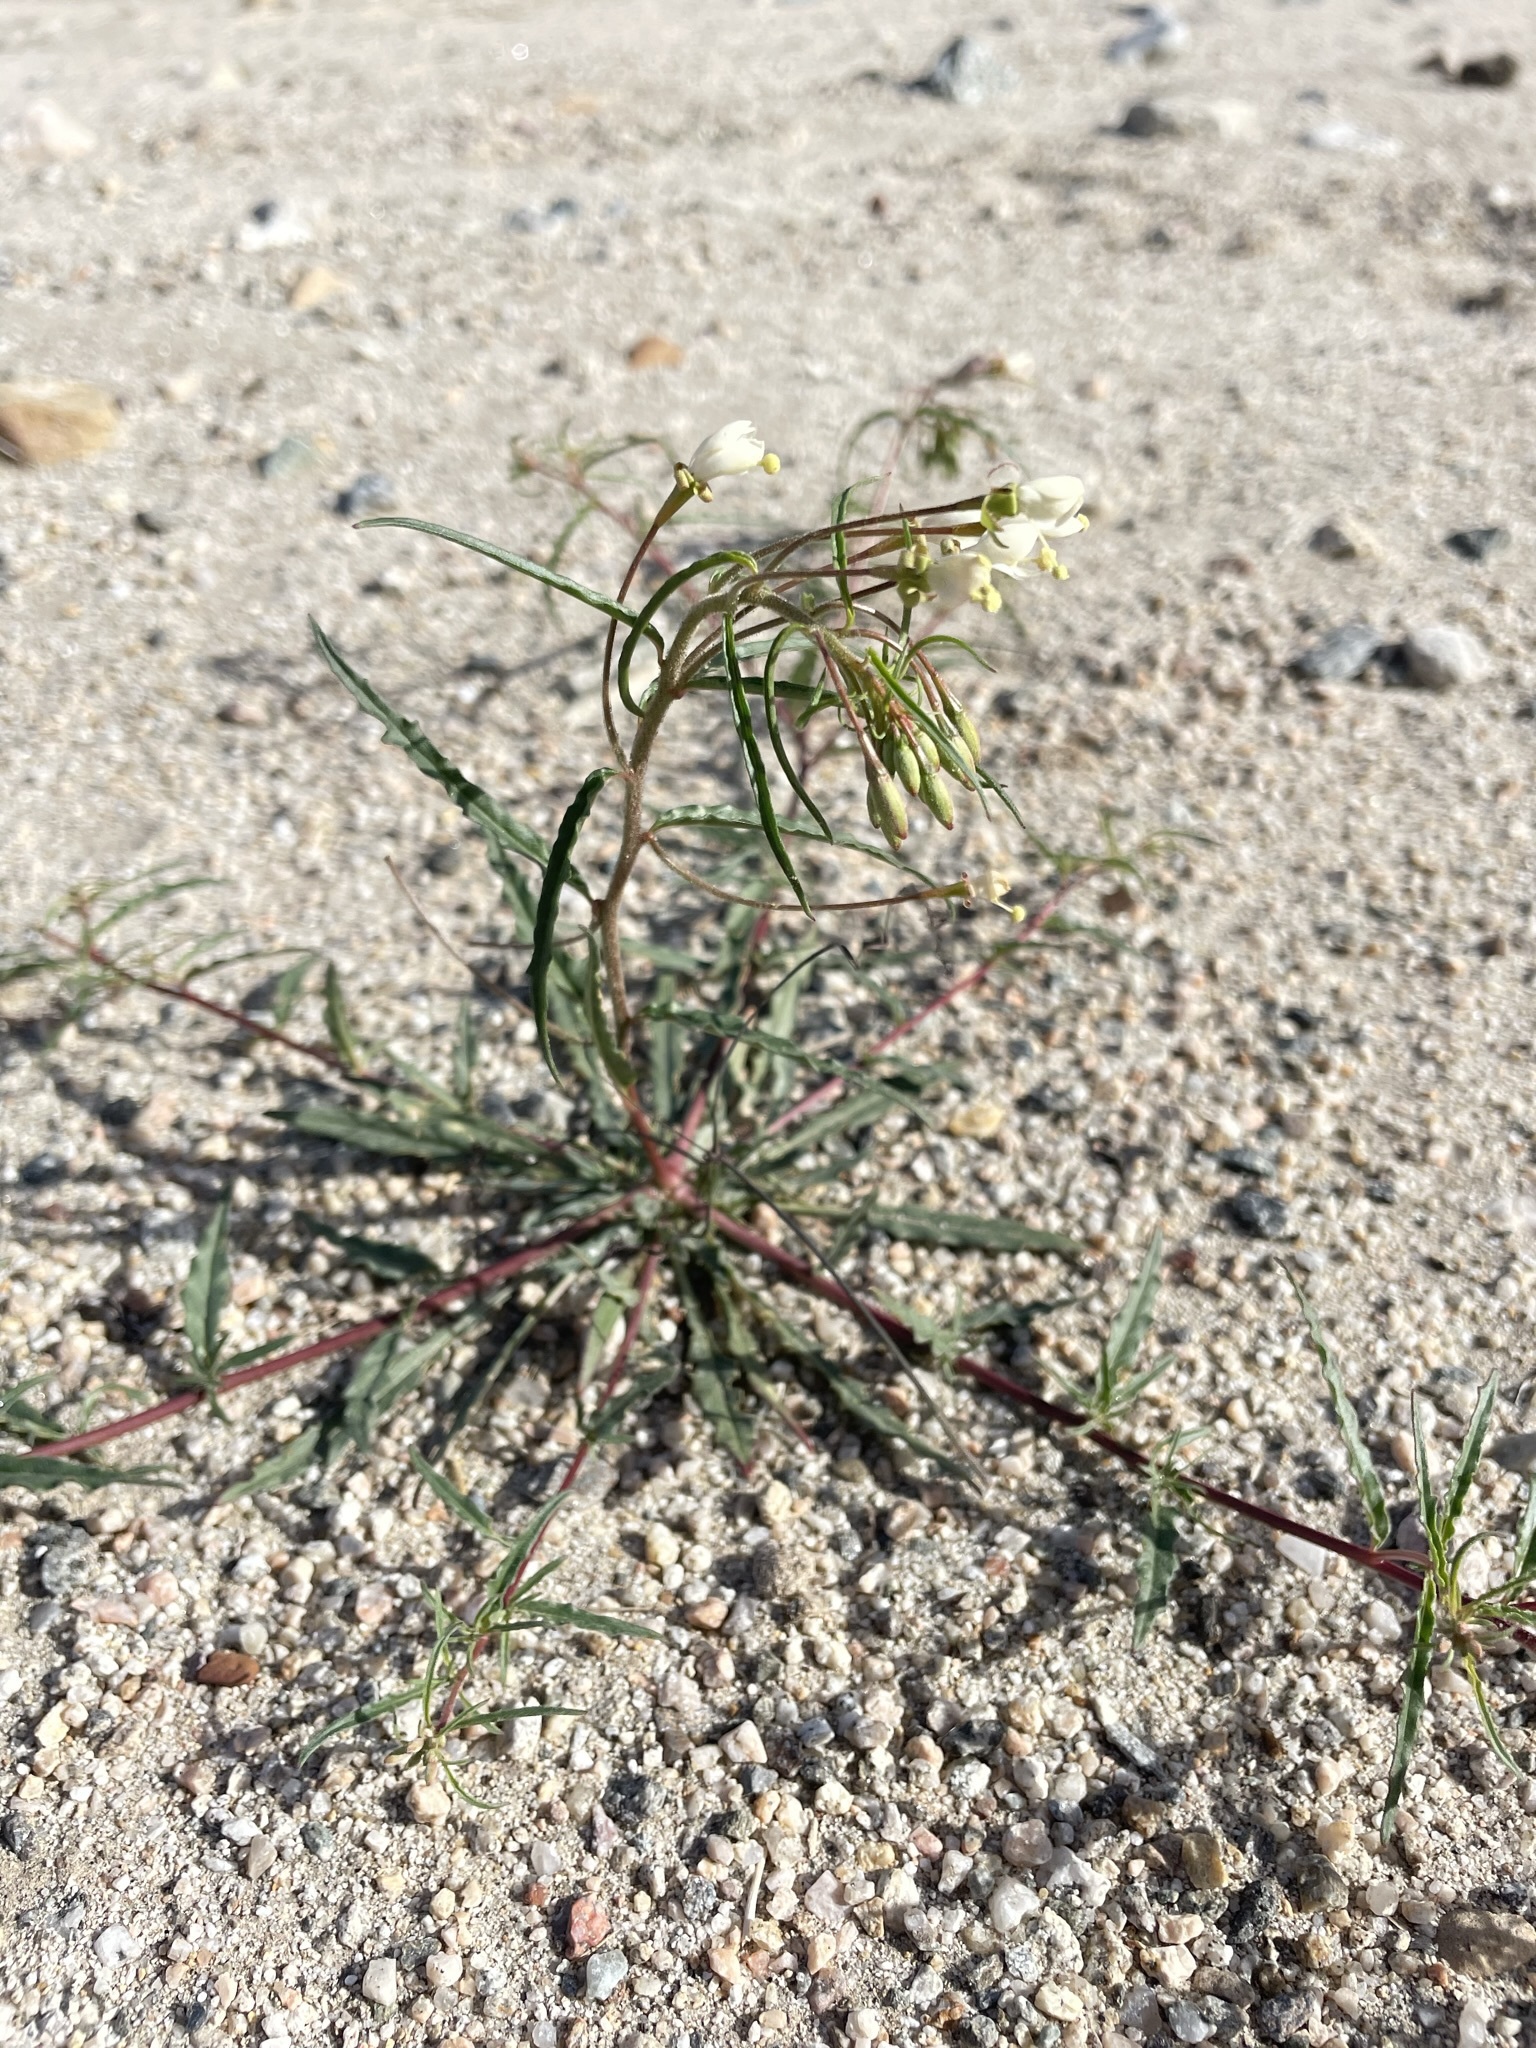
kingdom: Plantae
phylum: Tracheophyta
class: Magnoliopsida
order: Myrtales
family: Onagraceae
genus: Eremothera
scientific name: Eremothera refracta
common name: Narrowleaf suncup
